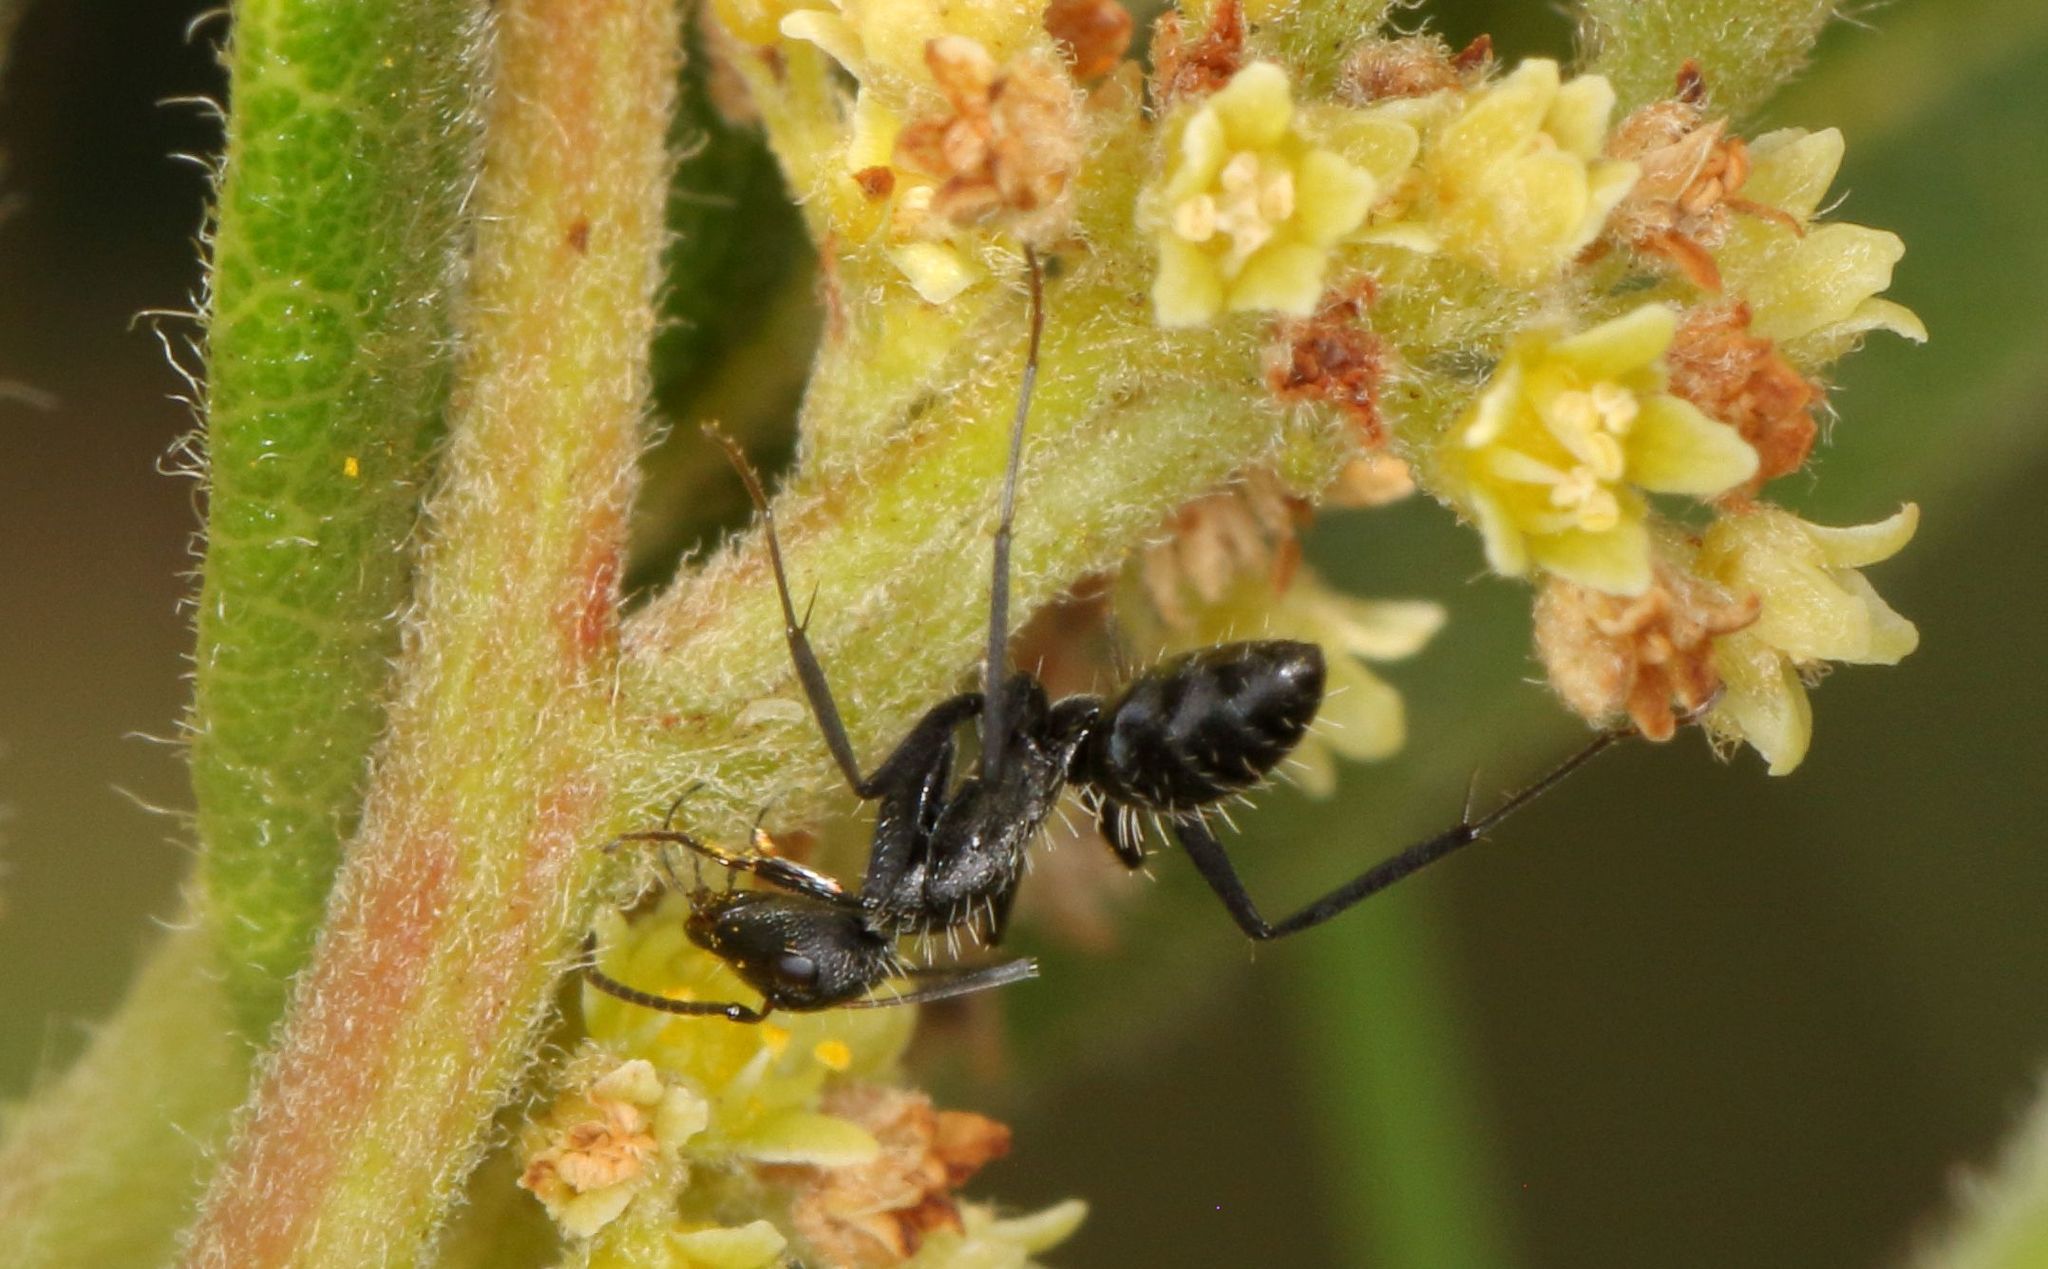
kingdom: Animalia
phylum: Arthropoda
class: Insecta
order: Hymenoptera
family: Formicidae
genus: Camponotus
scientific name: Camponotus niveosetosus
